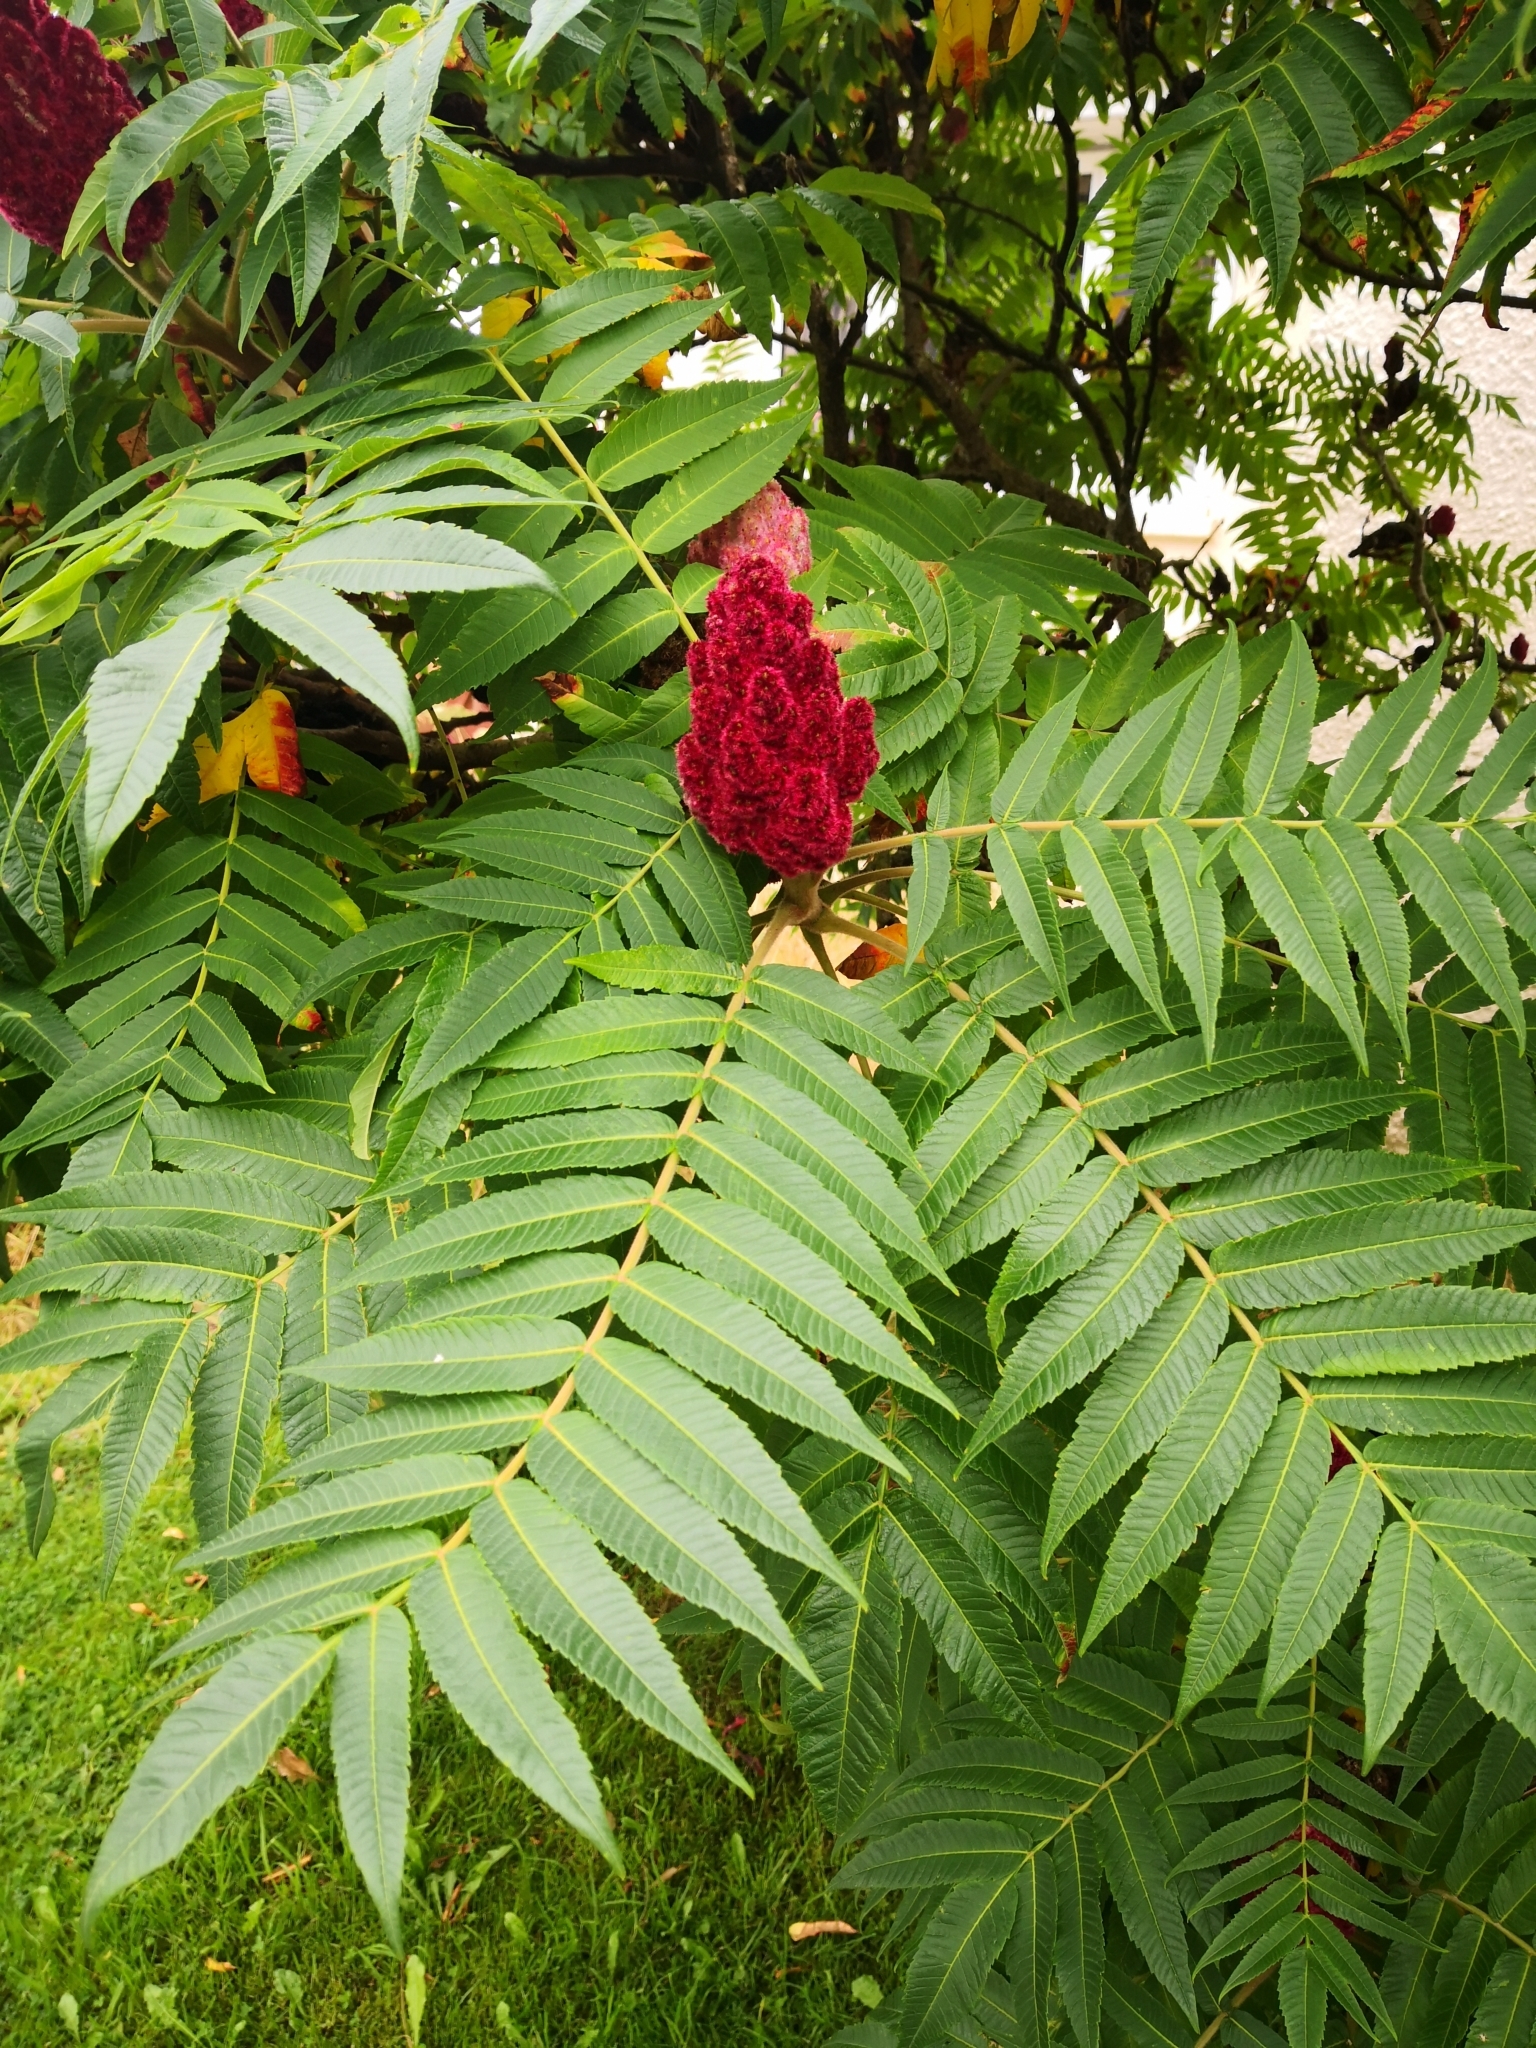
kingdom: Plantae
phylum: Tracheophyta
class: Magnoliopsida
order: Sapindales
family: Anacardiaceae
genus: Rhus
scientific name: Rhus typhina
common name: Staghorn sumac
